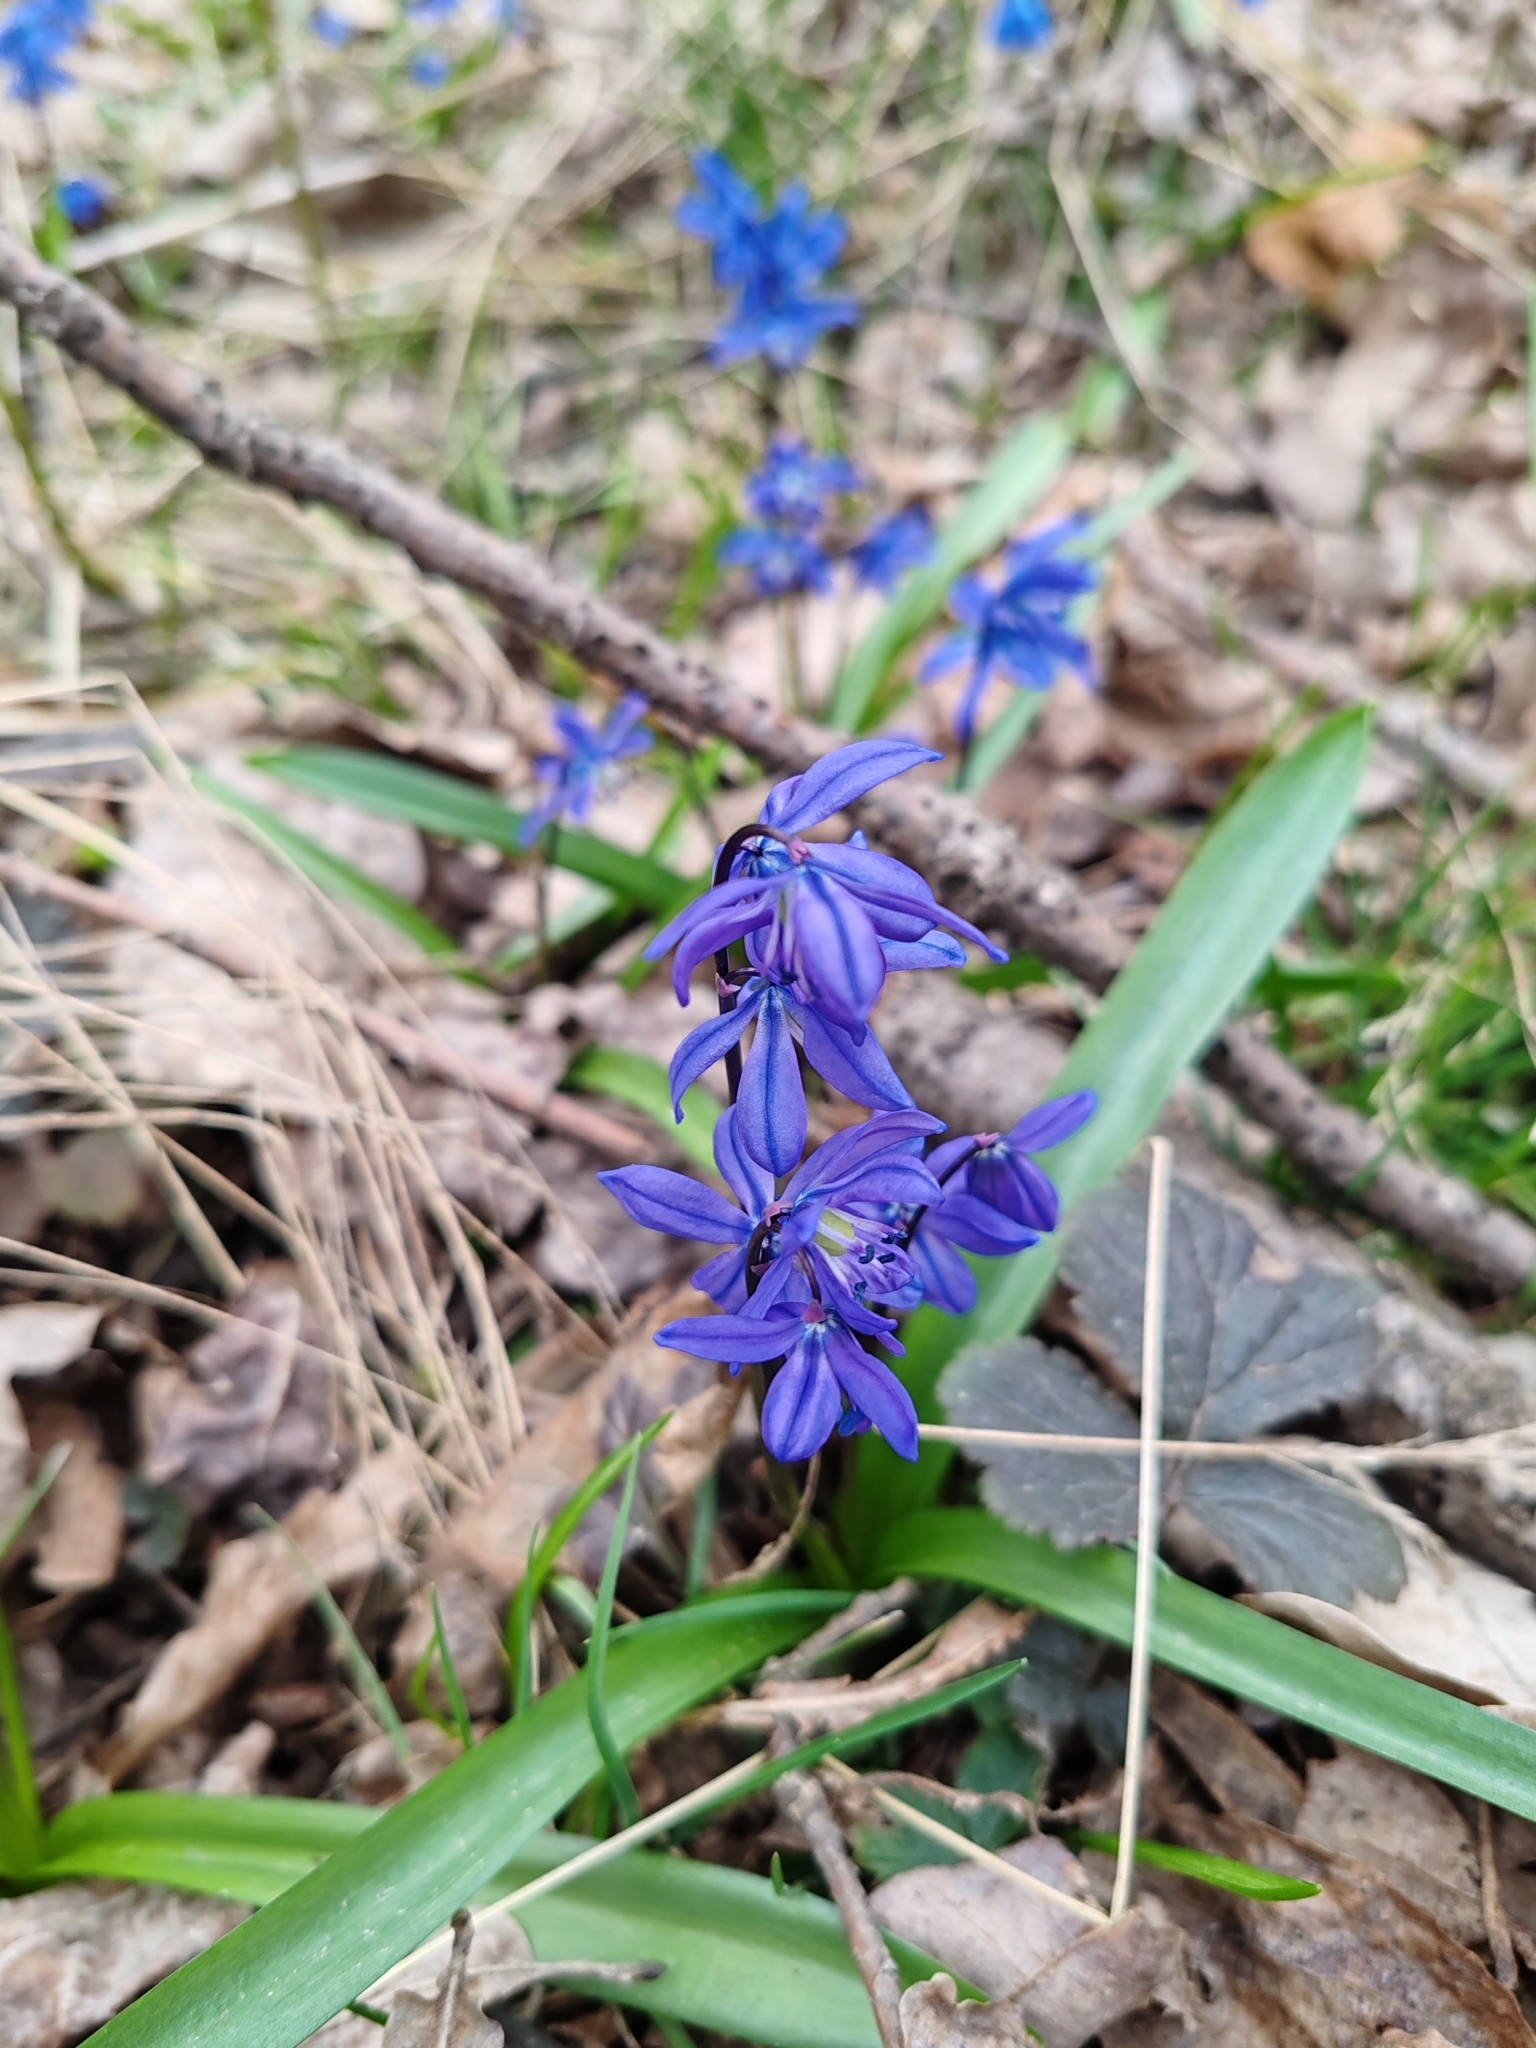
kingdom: Plantae
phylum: Tracheophyta
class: Liliopsida
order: Asparagales
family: Asparagaceae
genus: Scilla
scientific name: Scilla siberica
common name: Siberian squill
